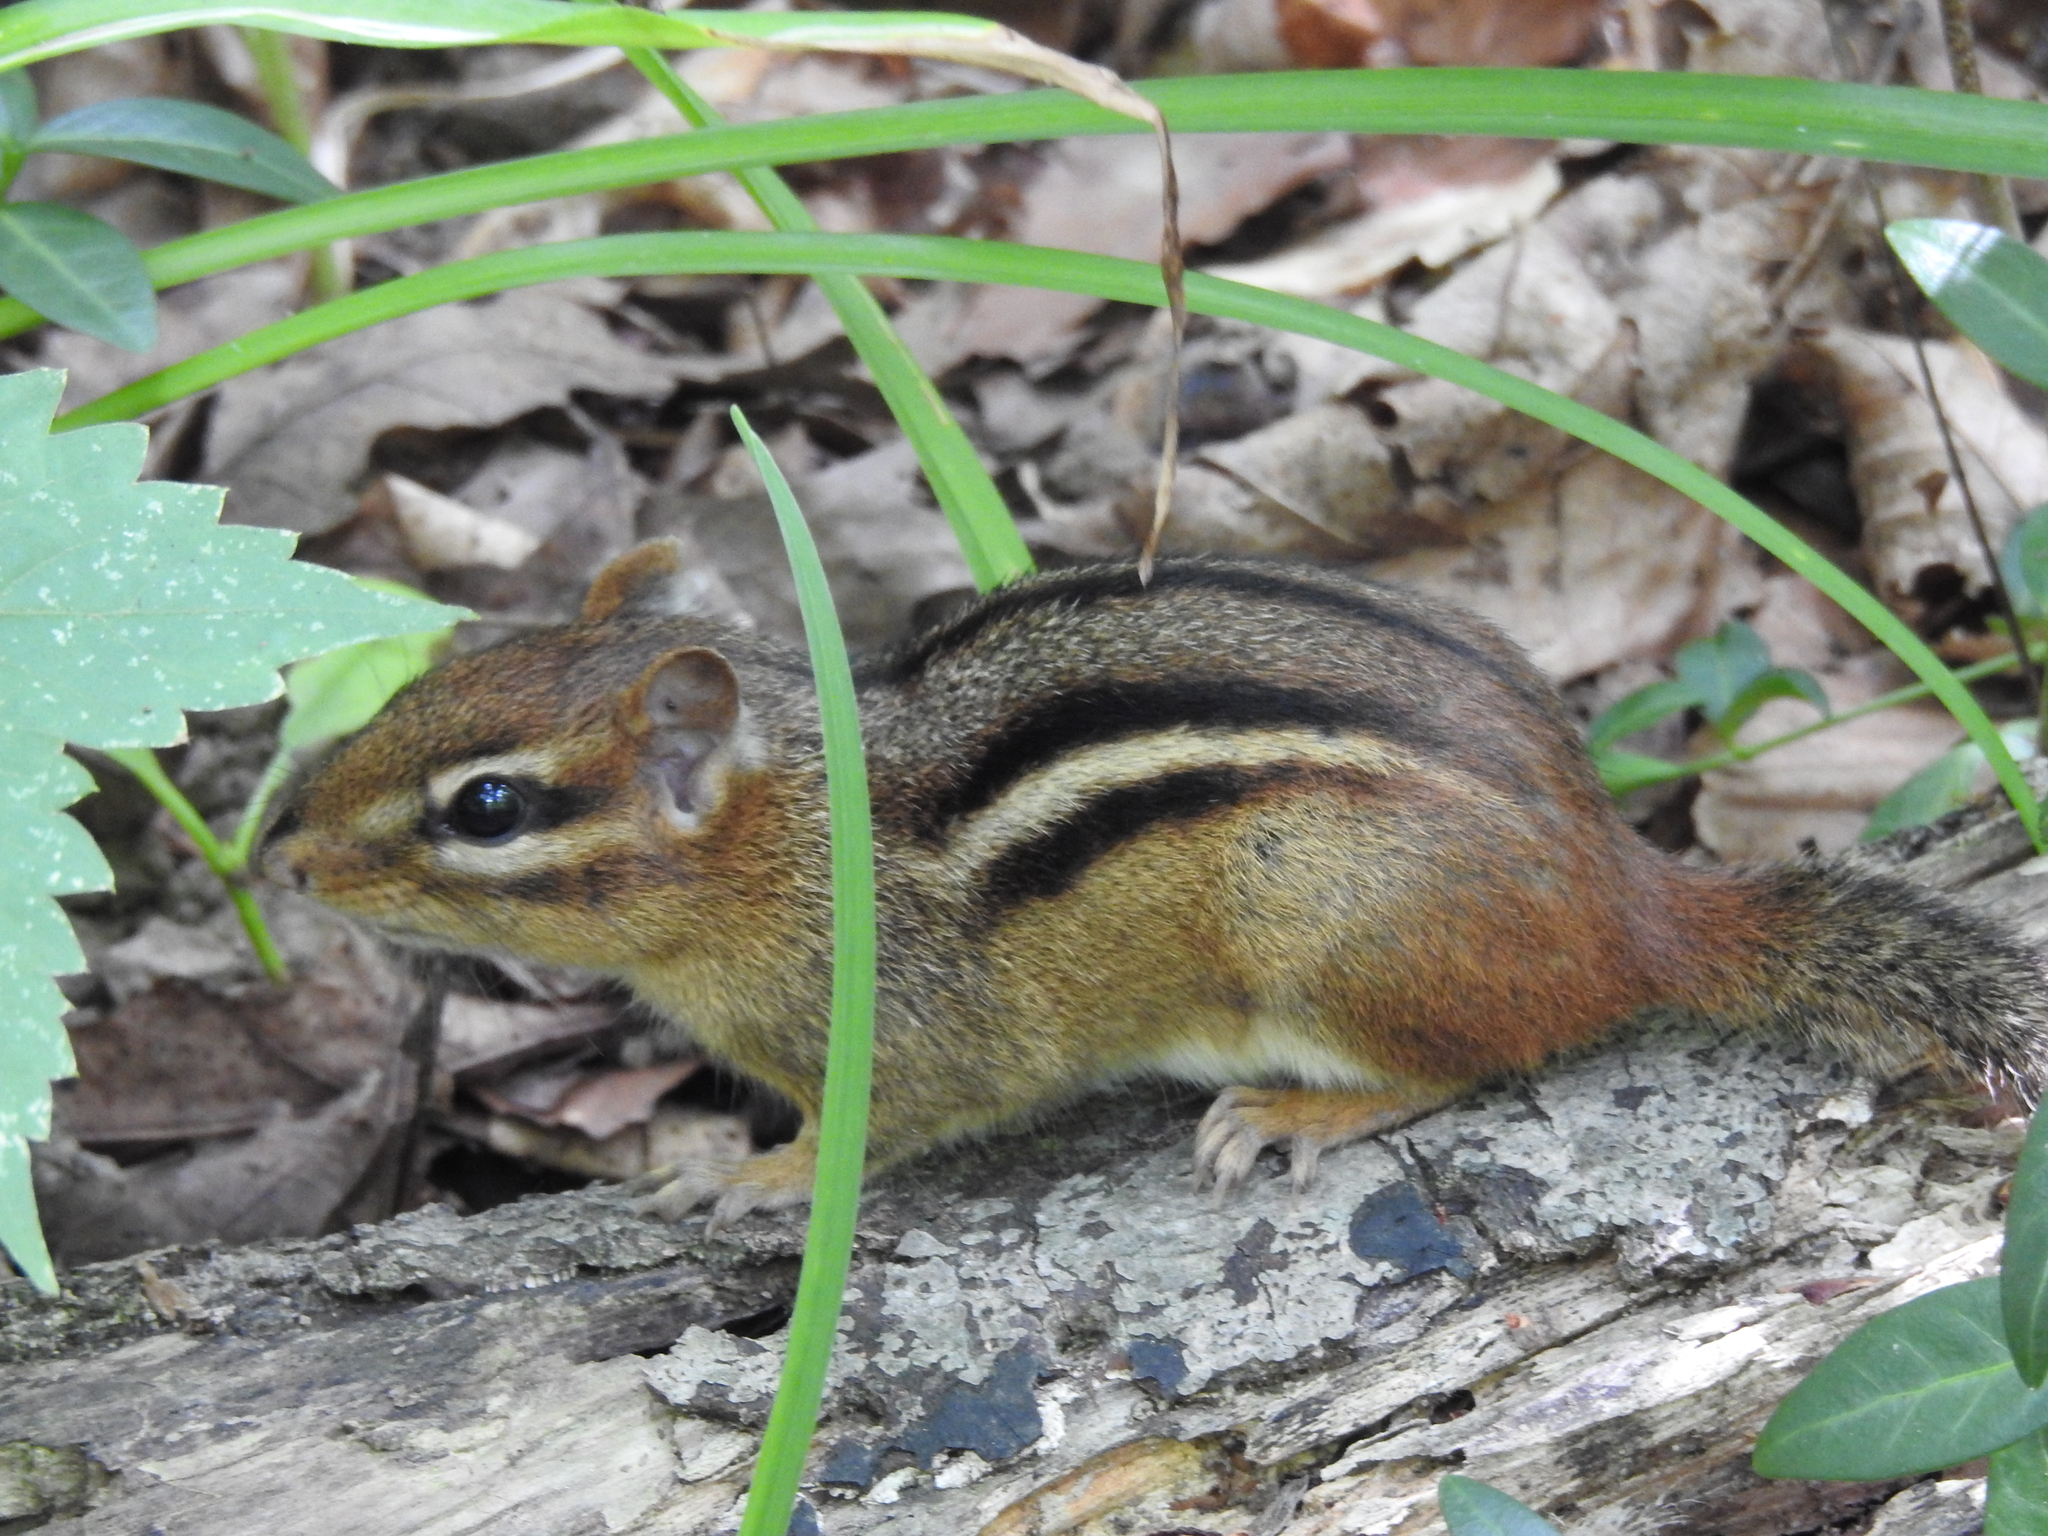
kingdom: Animalia
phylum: Chordata
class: Mammalia
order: Rodentia
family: Sciuridae
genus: Tamias
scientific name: Tamias striatus
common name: Eastern chipmunk
